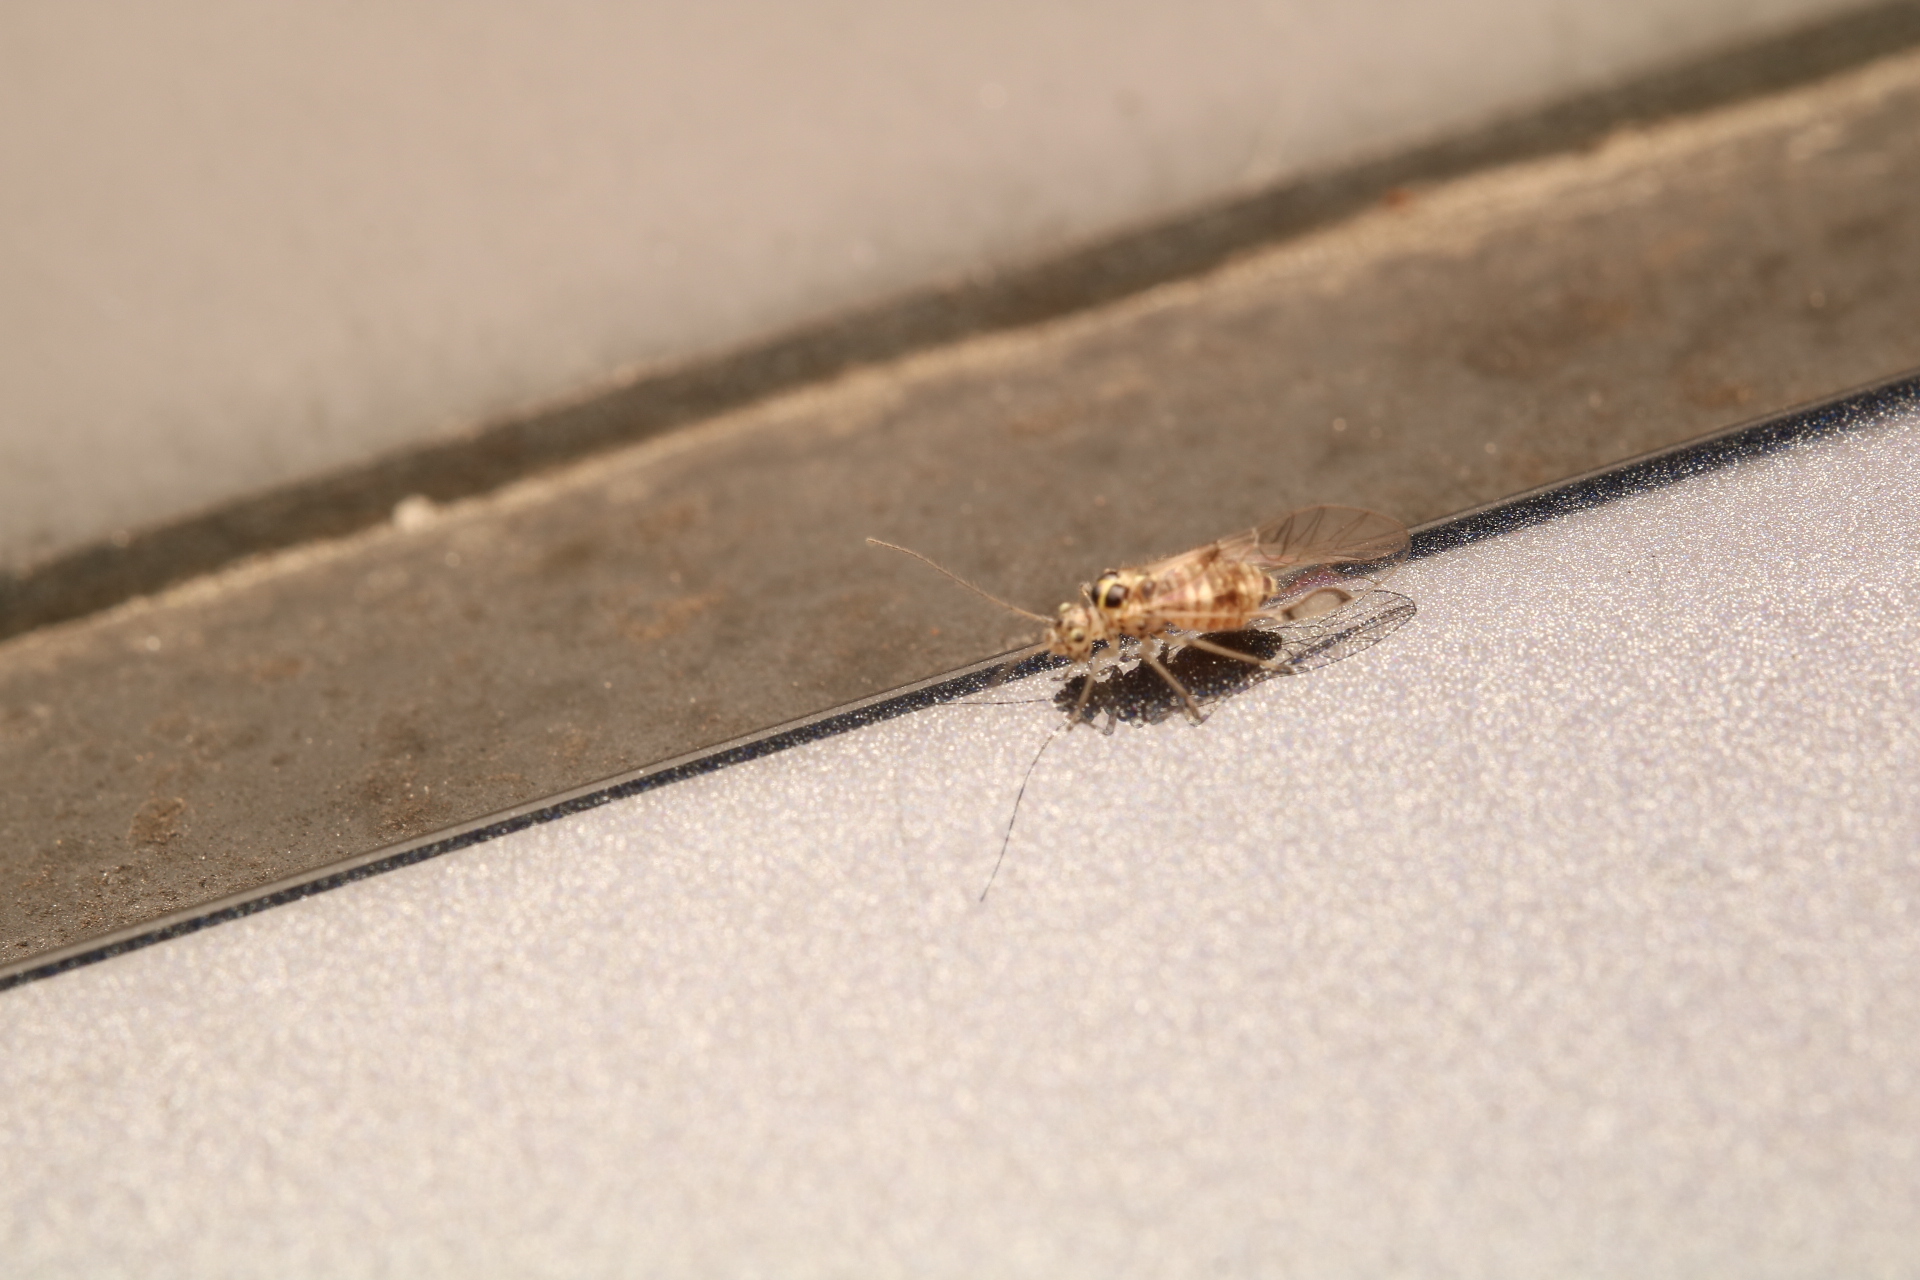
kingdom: Animalia
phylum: Arthropoda
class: Insecta
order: Psocodea
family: Dasydemellidae
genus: Teliapsocus
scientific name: Teliapsocus conterminus
